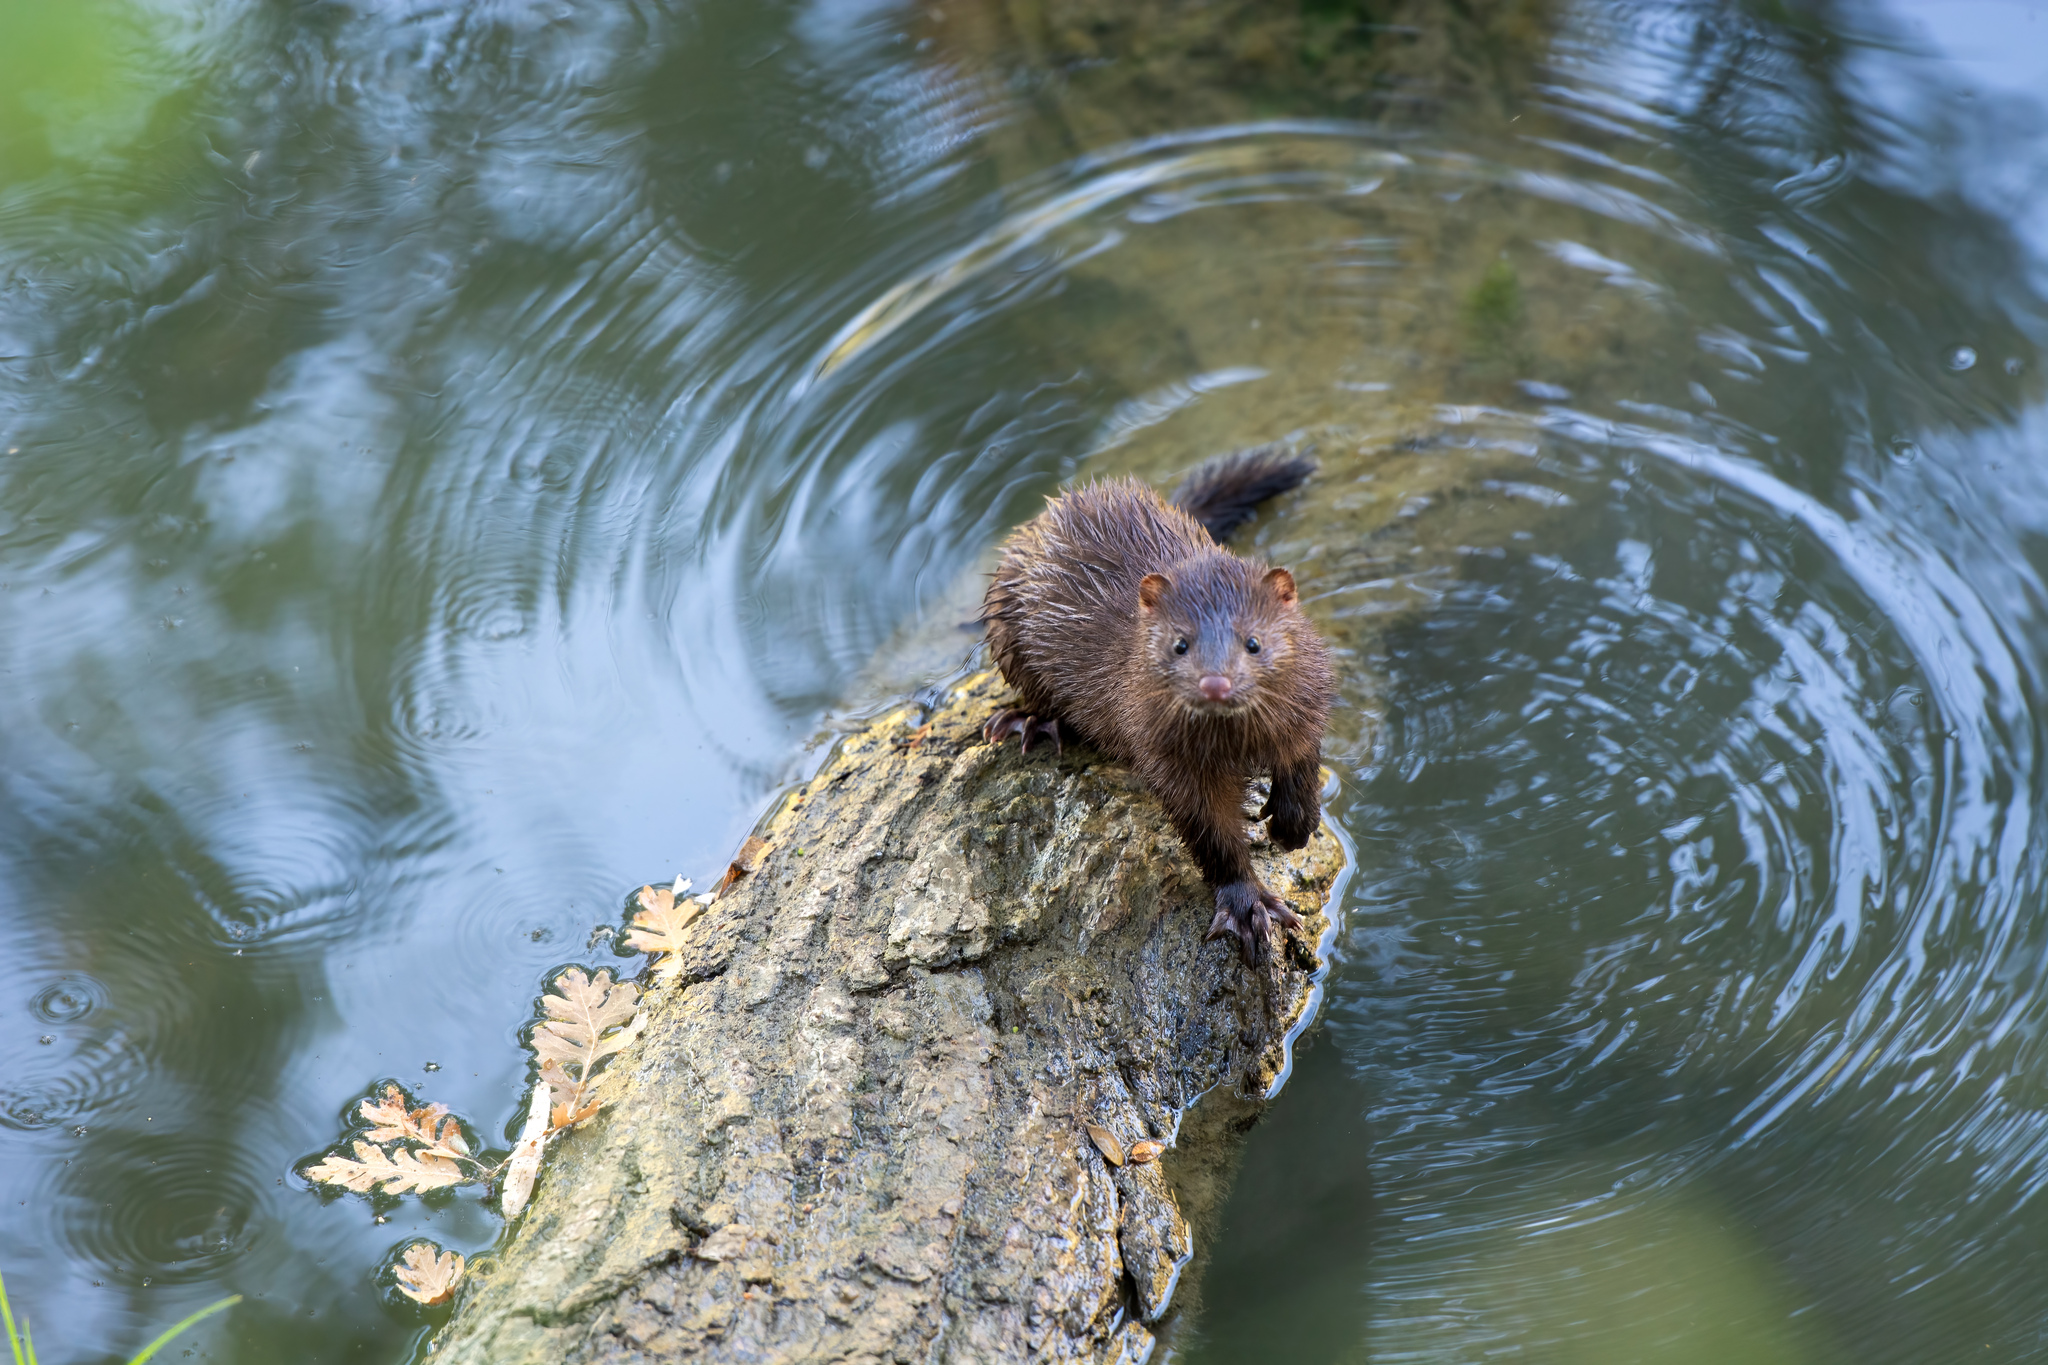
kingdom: Animalia
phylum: Chordata
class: Mammalia
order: Carnivora
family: Mustelidae
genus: Mustela
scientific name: Mustela
